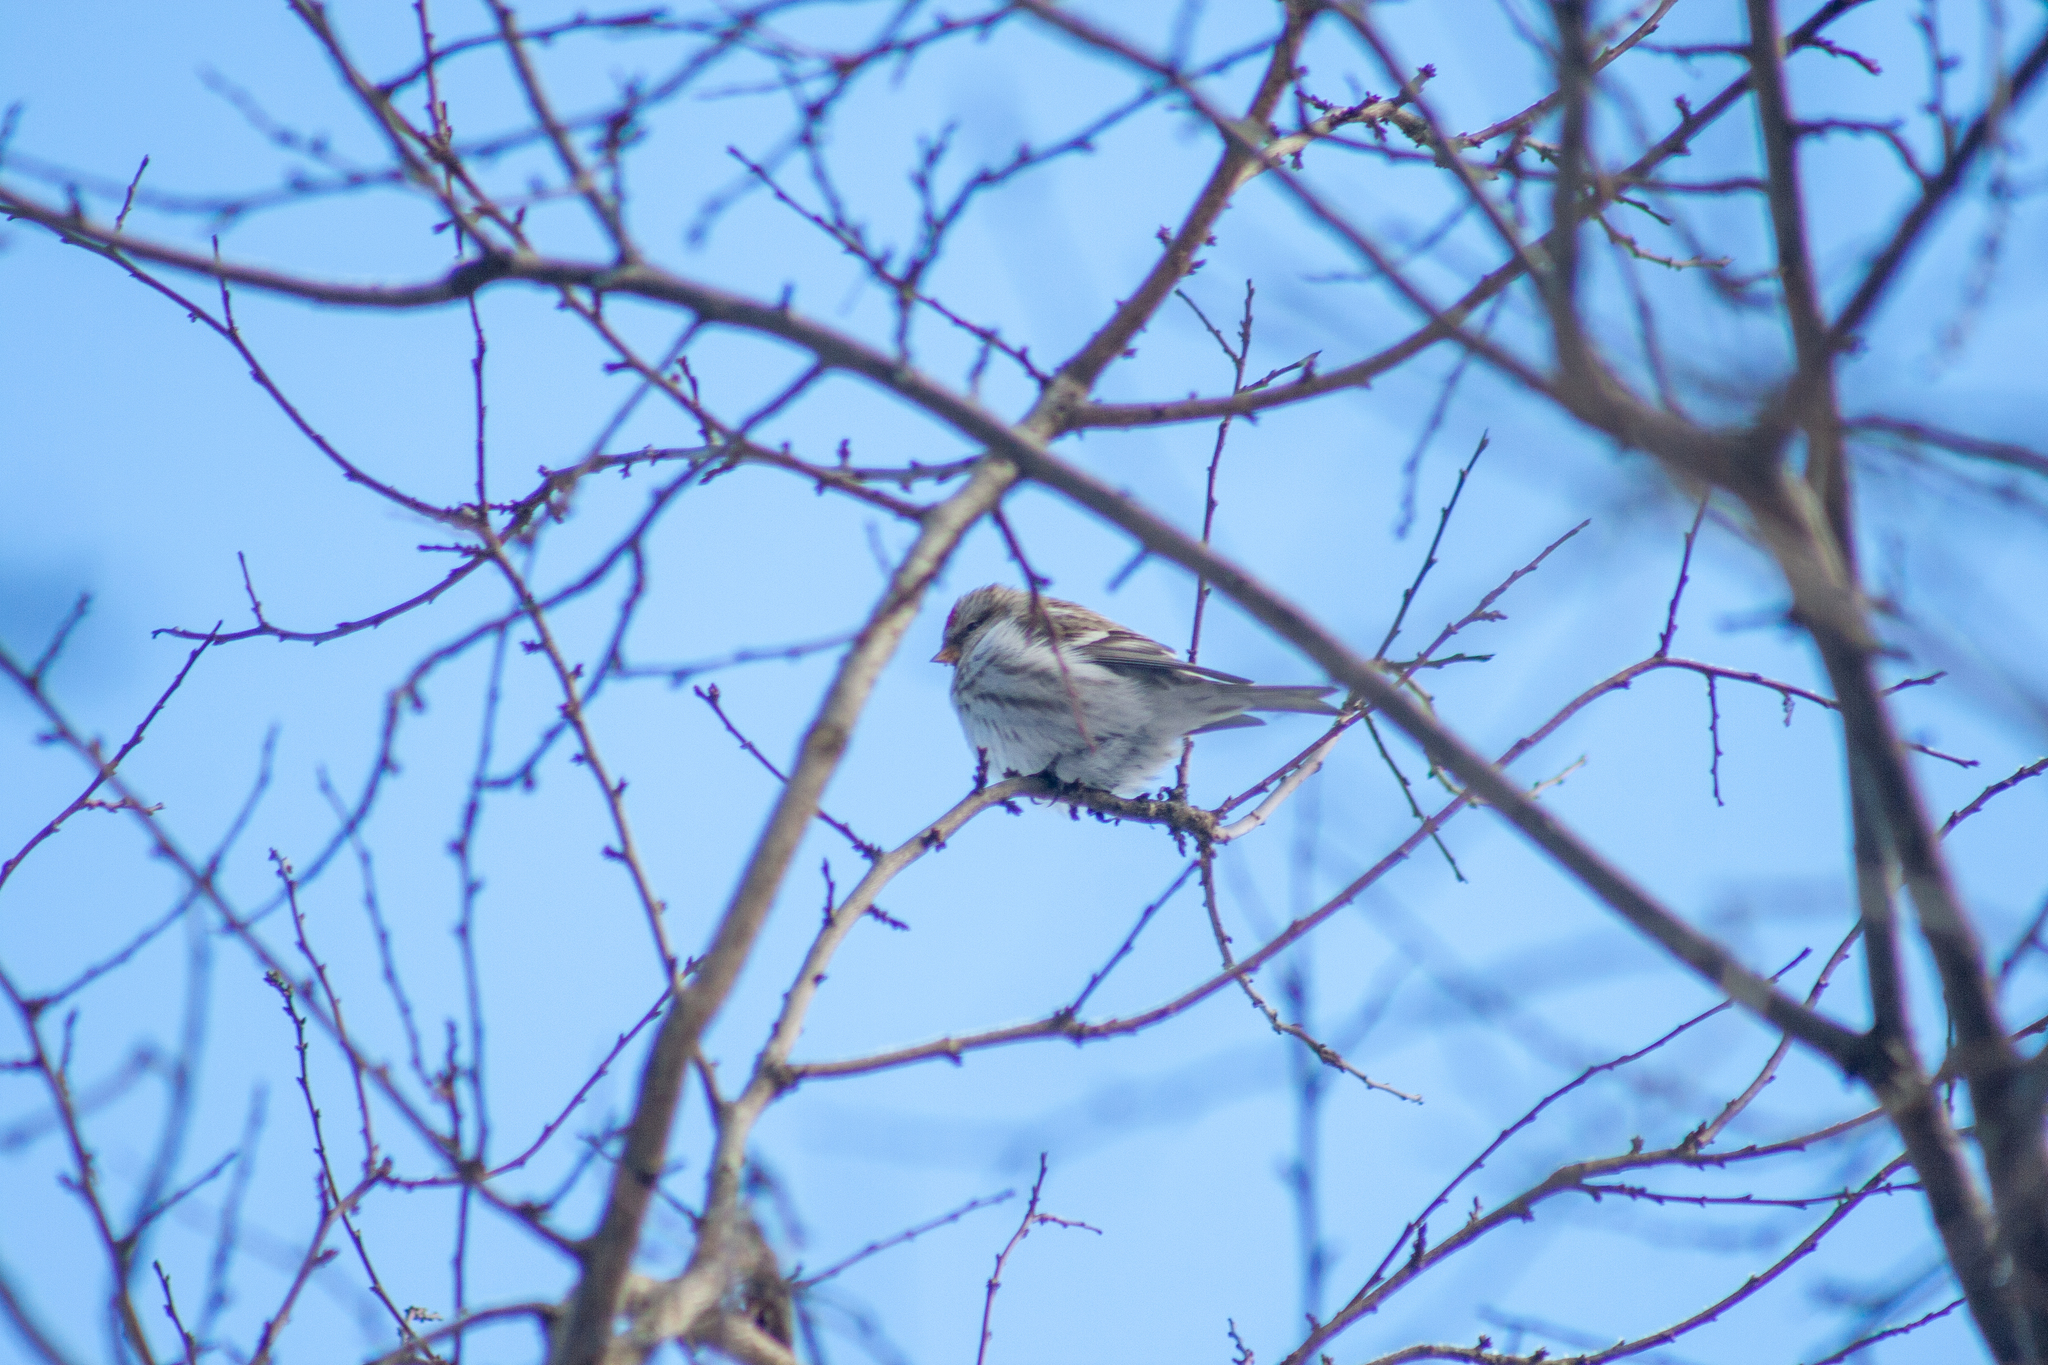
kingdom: Animalia
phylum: Chordata
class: Aves
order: Passeriformes
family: Fringillidae
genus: Acanthis
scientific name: Acanthis flammea
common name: Common redpoll
